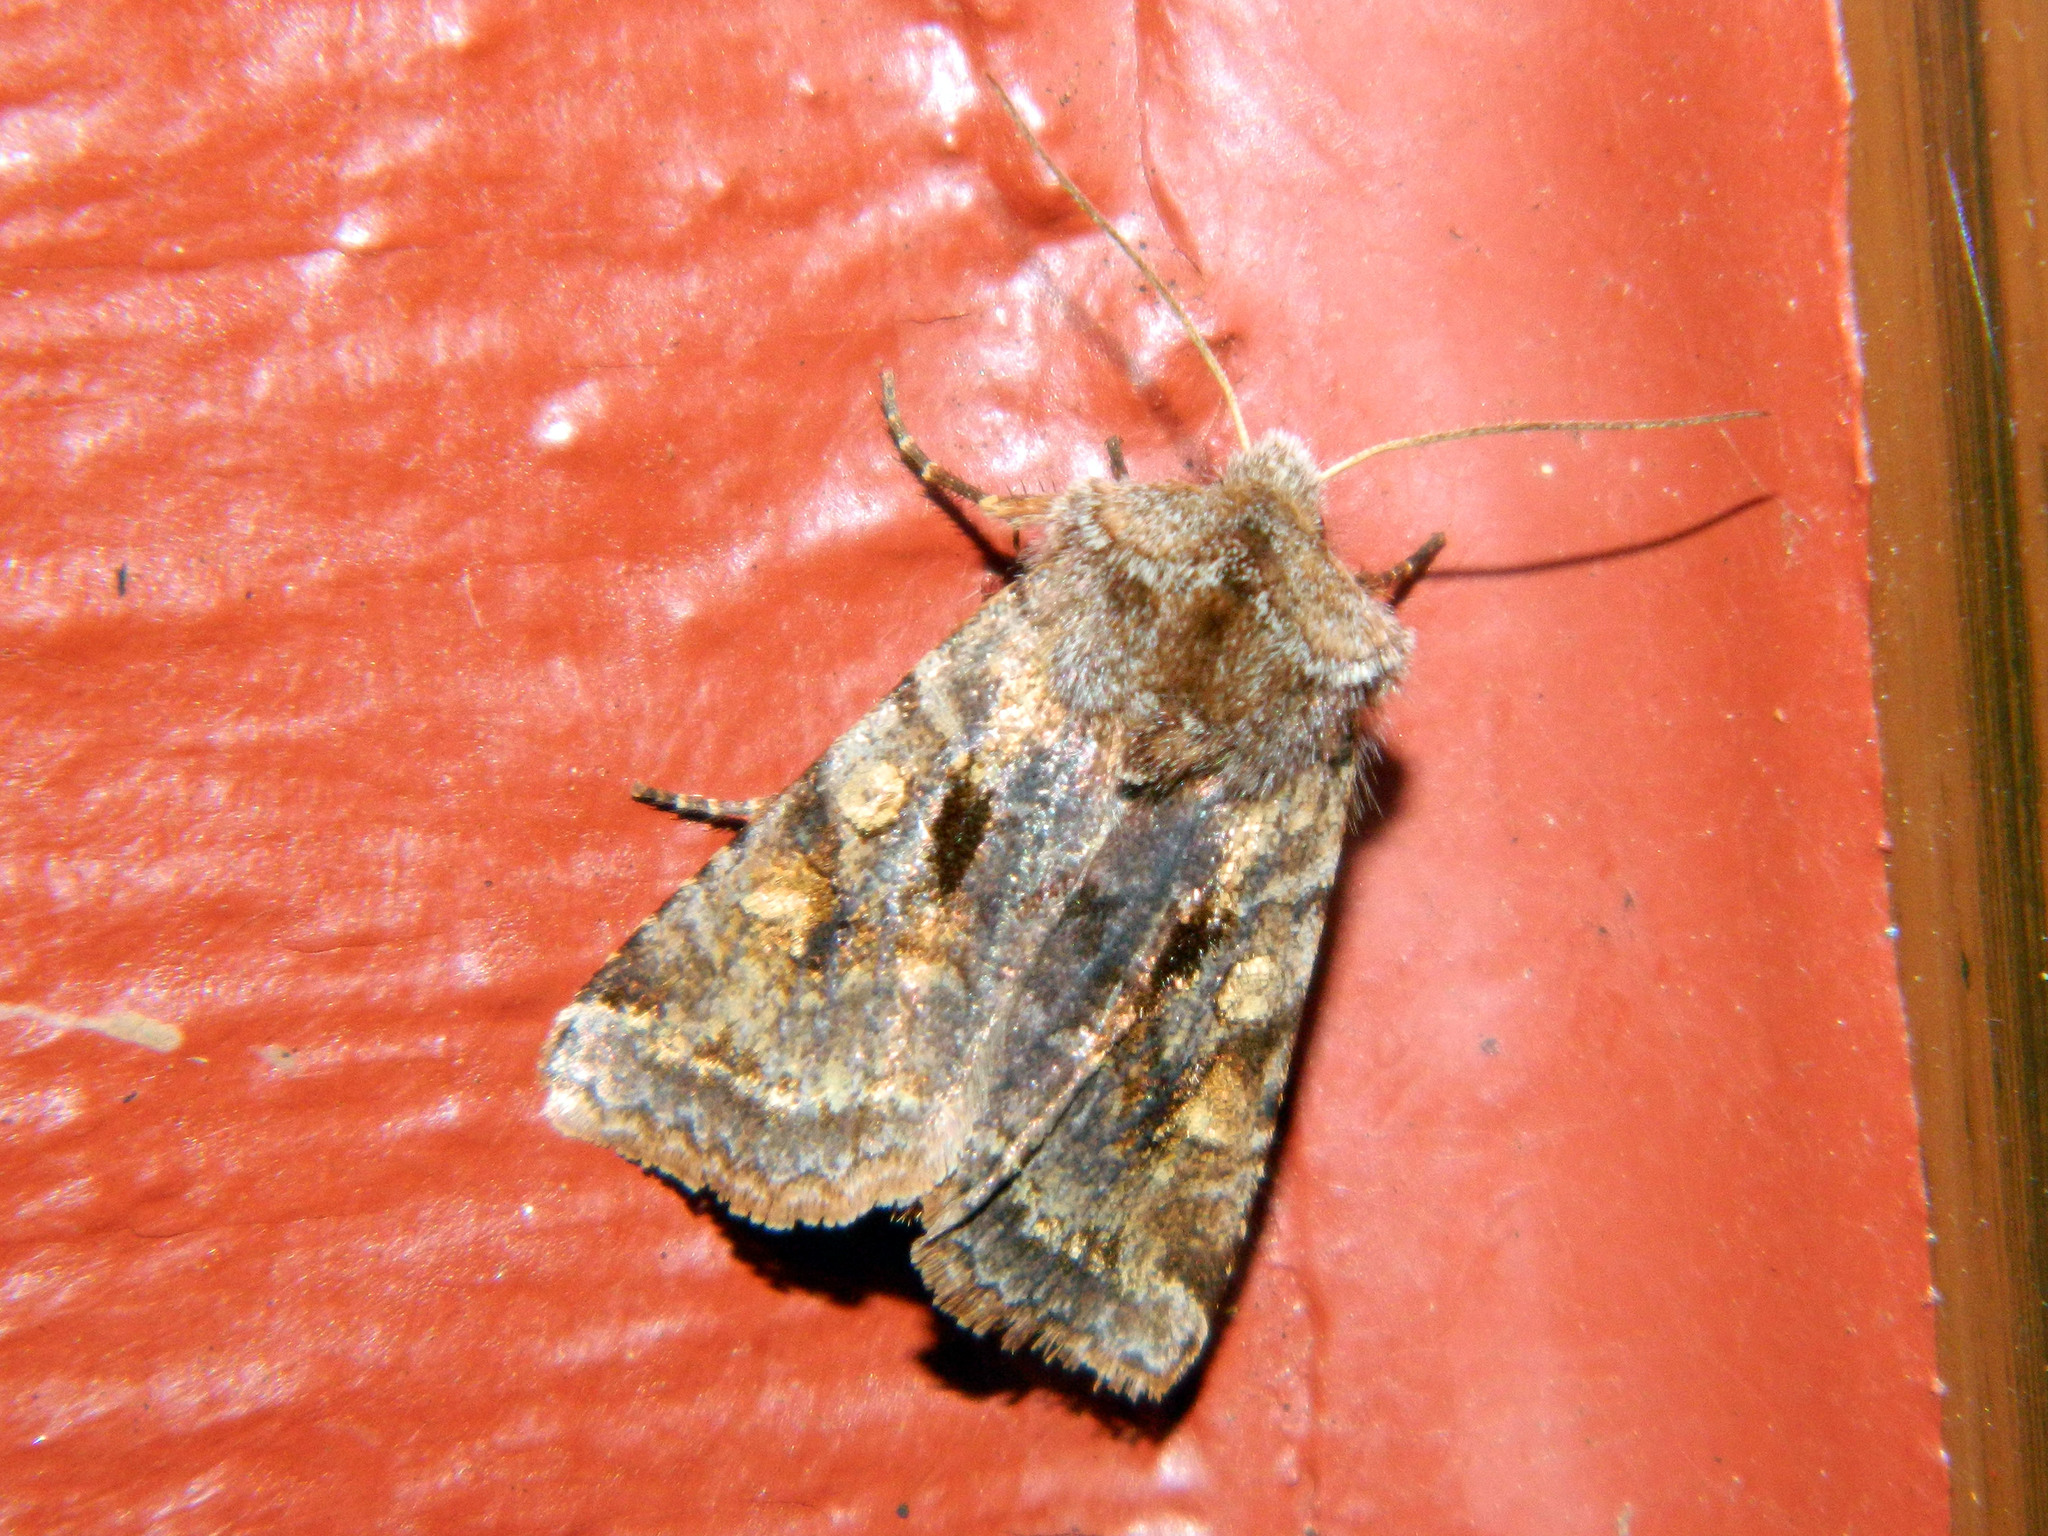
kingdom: Animalia
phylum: Arthropoda
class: Insecta
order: Lepidoptera
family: Noctuidae
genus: Cerastis
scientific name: Cerastis salicarum
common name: Willow dart
